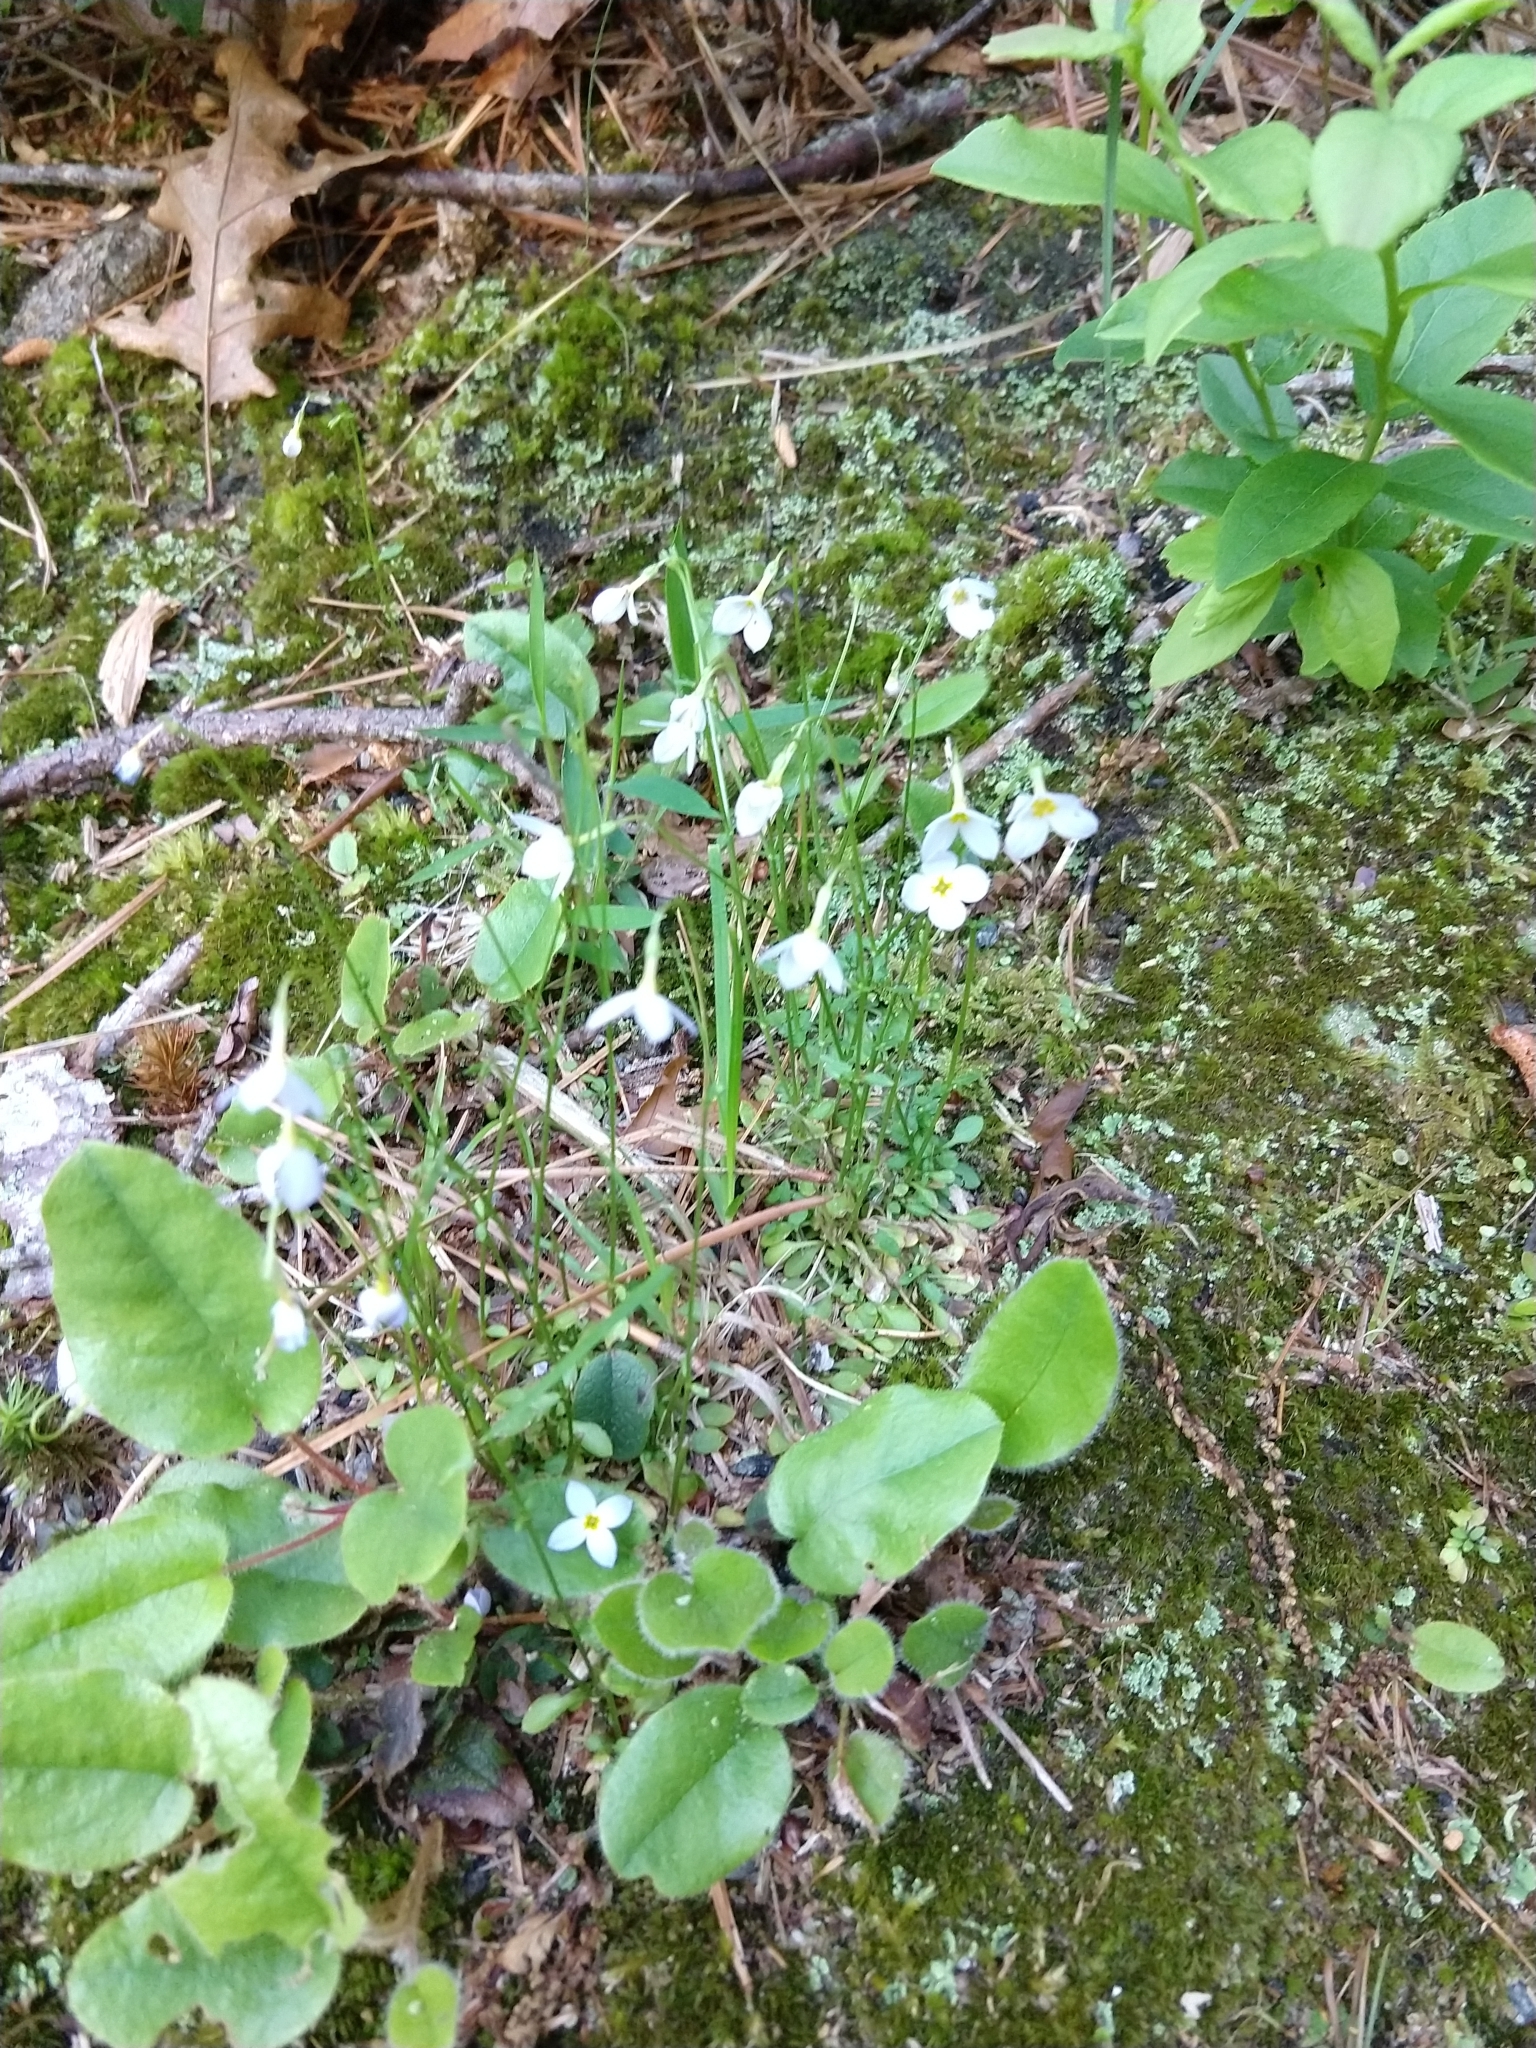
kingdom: Plantae
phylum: Tracheophyta
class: Magnoliopsida
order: Gentianales
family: Rubiaceae
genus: Houstonia
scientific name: Houstonia caerulea
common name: Bluets
